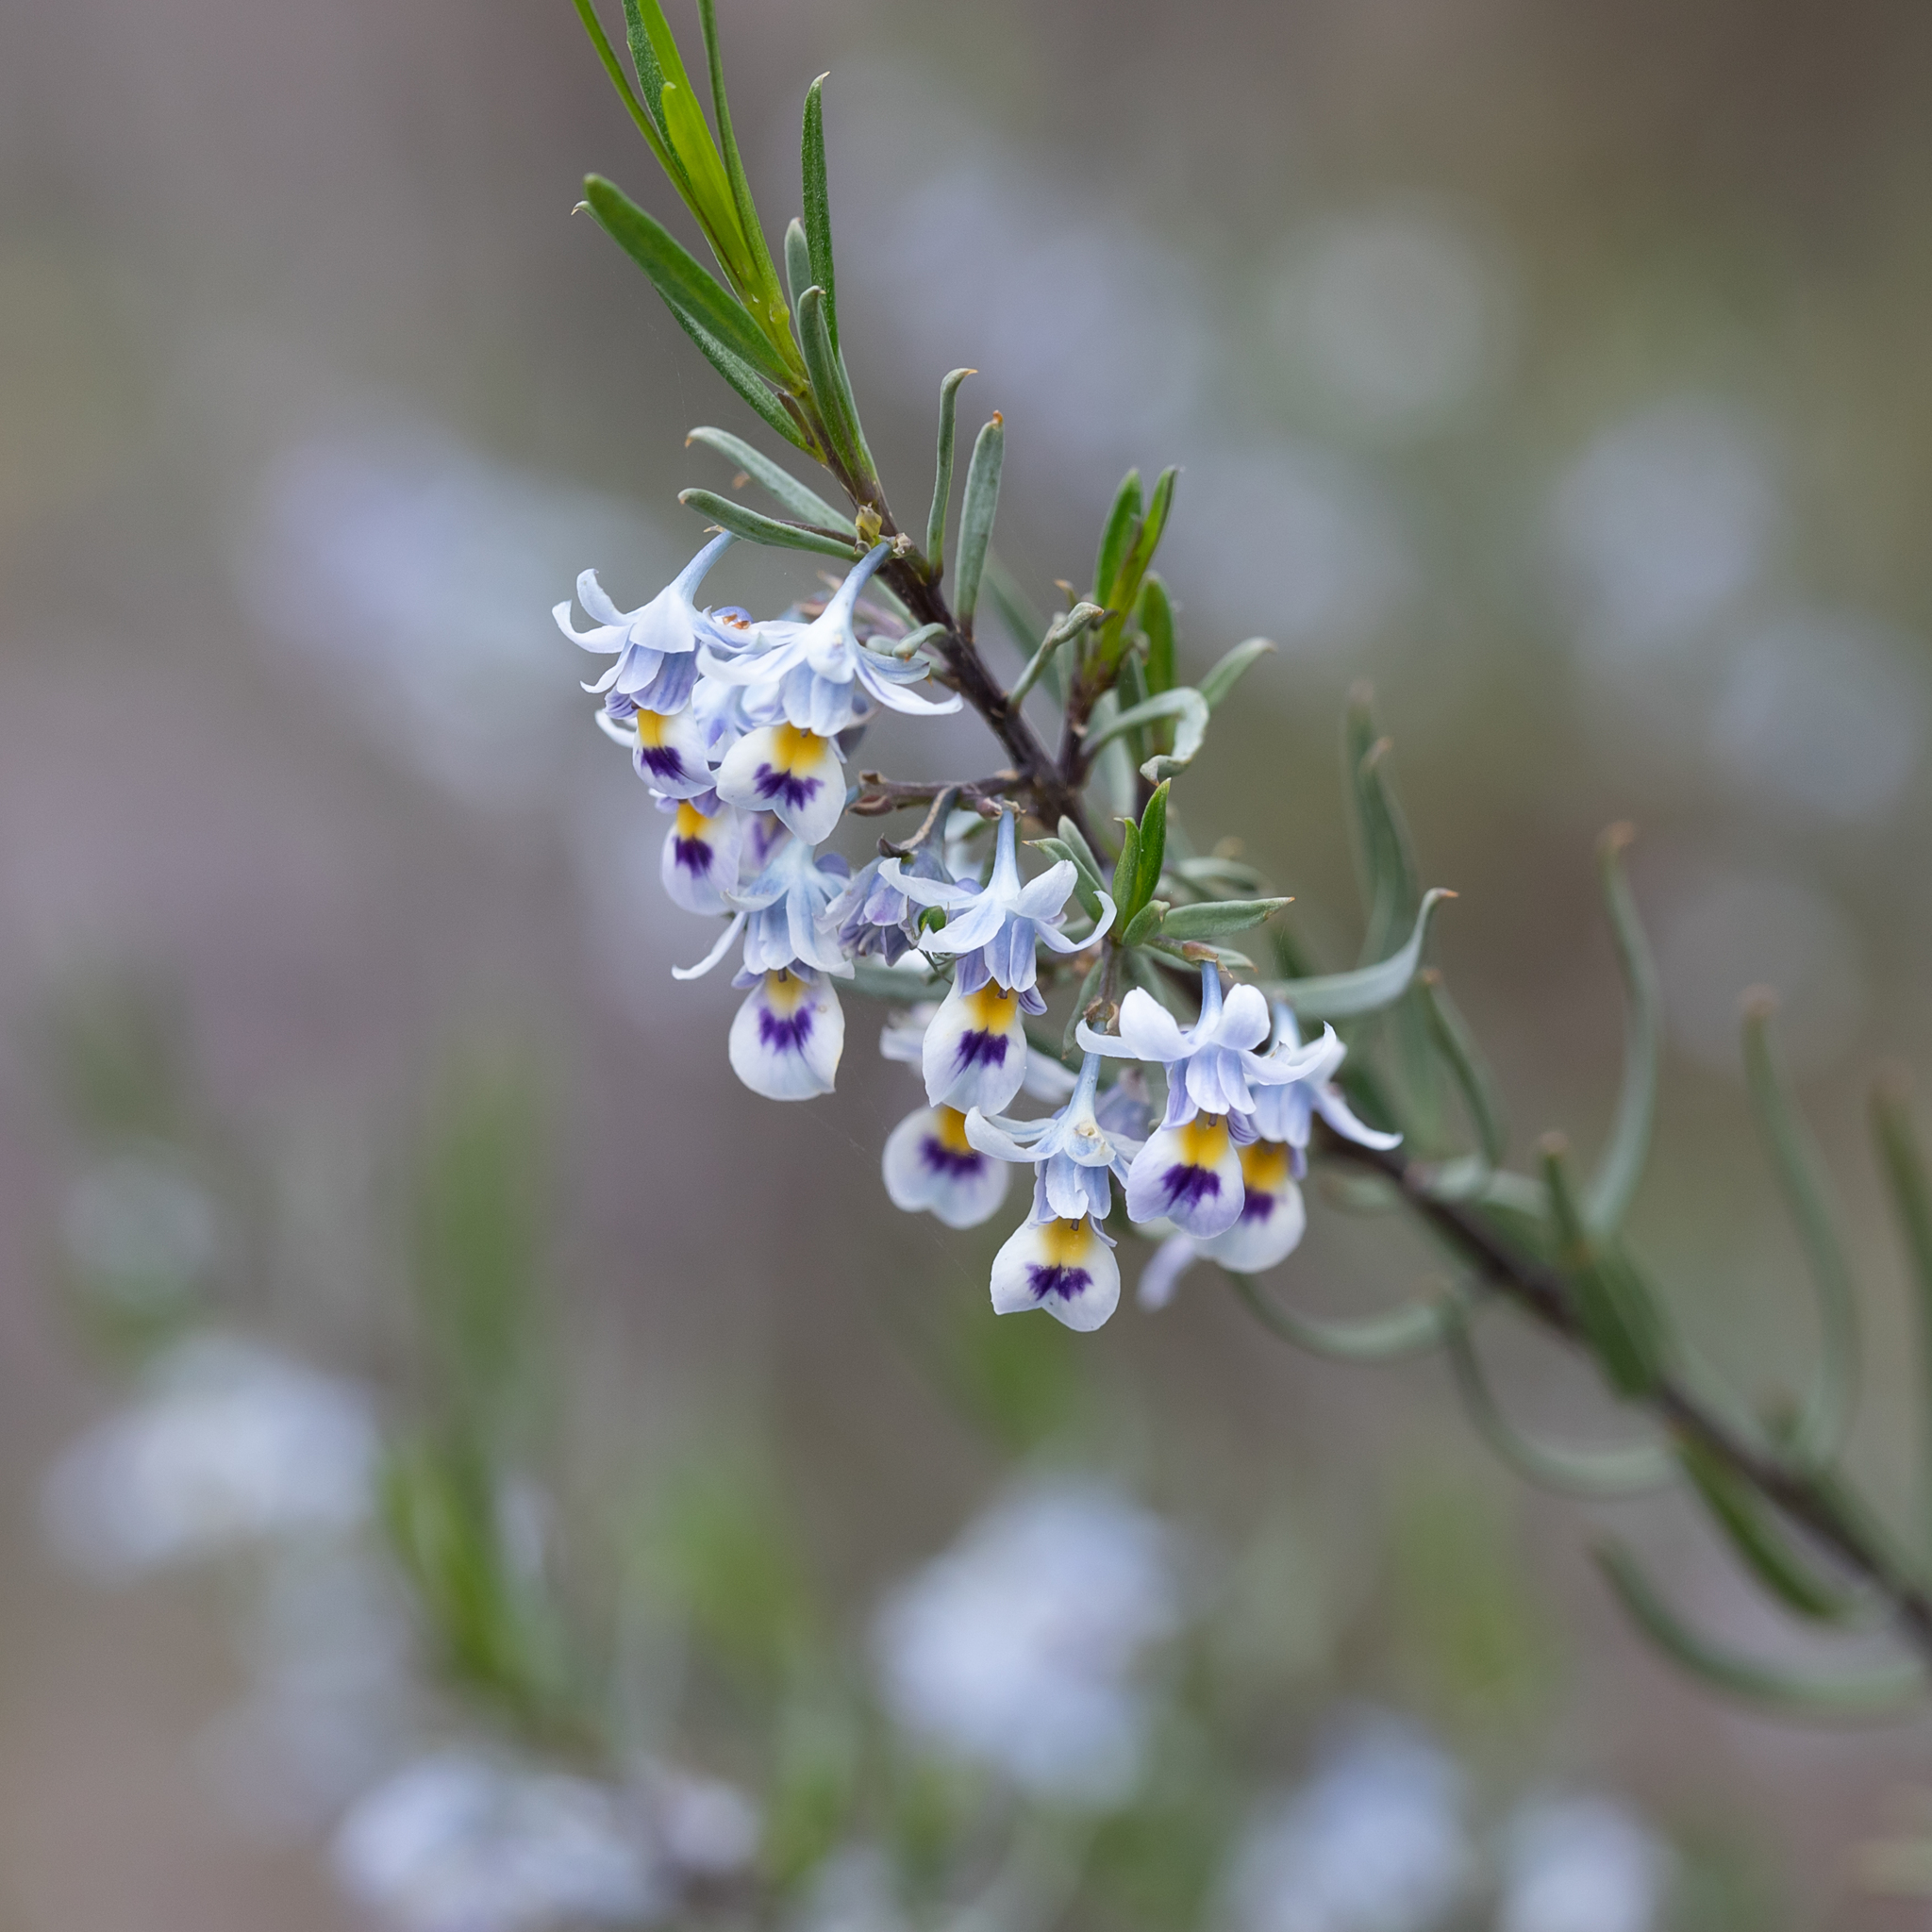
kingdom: Plantae
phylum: Tracheophyta
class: Magnoliopsida
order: Malpighiales
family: Violaceae
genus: Pigea
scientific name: Pigea floribunda
